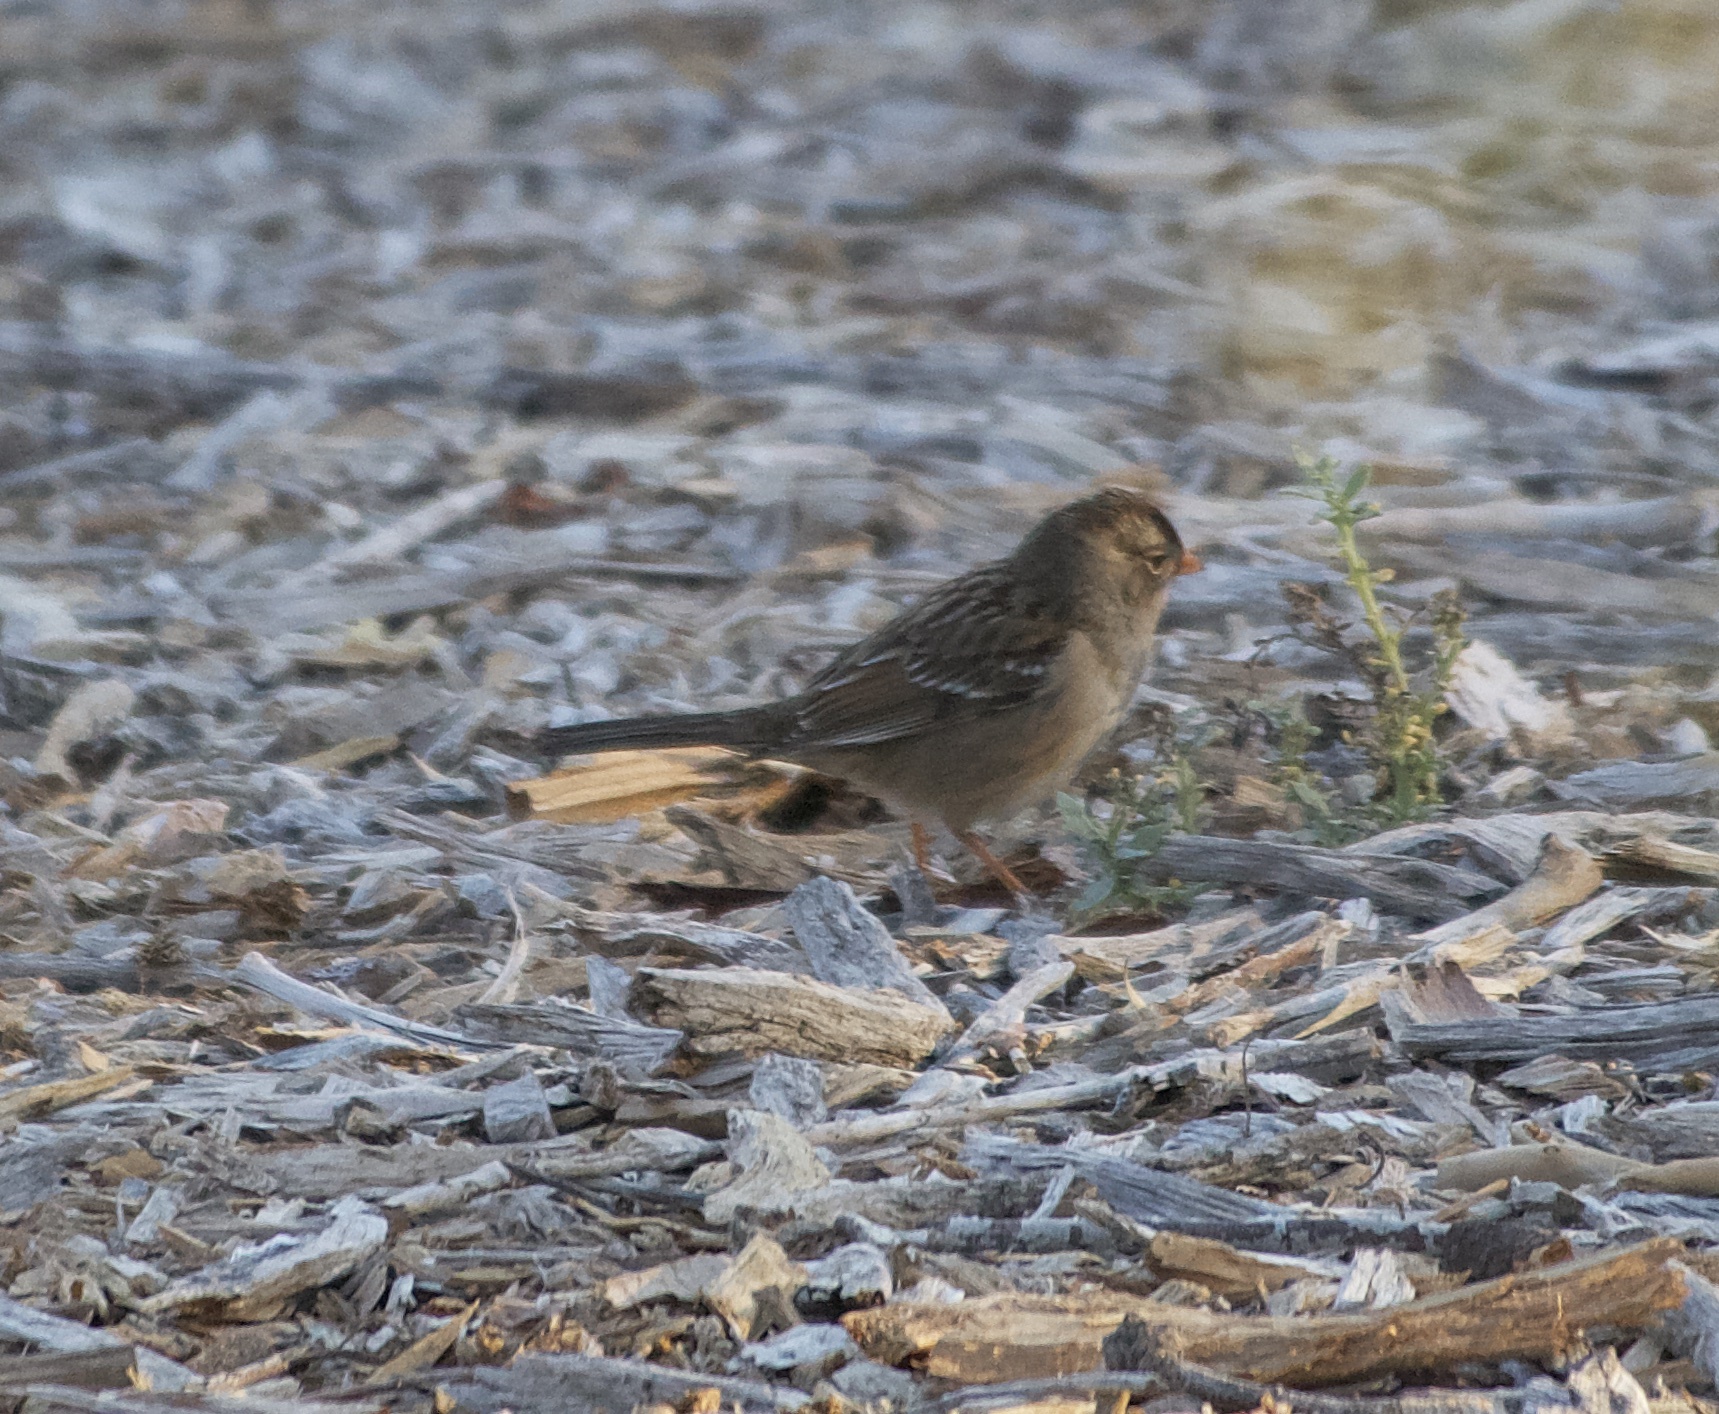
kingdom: Animalia
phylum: Chordata
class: Aves
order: Passeriformes
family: Passerellidae
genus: Zonotrichia
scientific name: Zonotrichia leucophrys
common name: White-crowned sparrow
